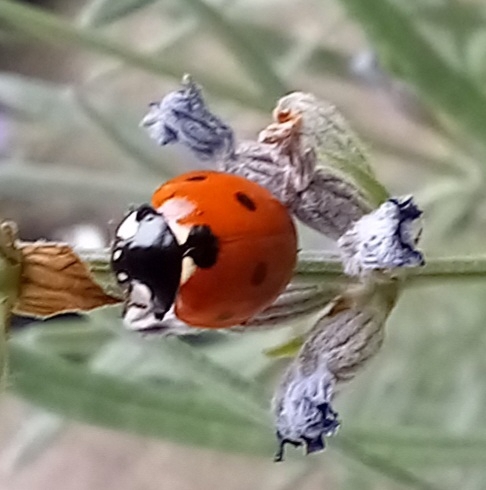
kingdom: Animalia
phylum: Arthropoda
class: Insecta
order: Coleoptera
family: Coccinellidae
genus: Coccinella
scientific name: Coccinella septempunctata
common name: Sevenspotted lady beetle
